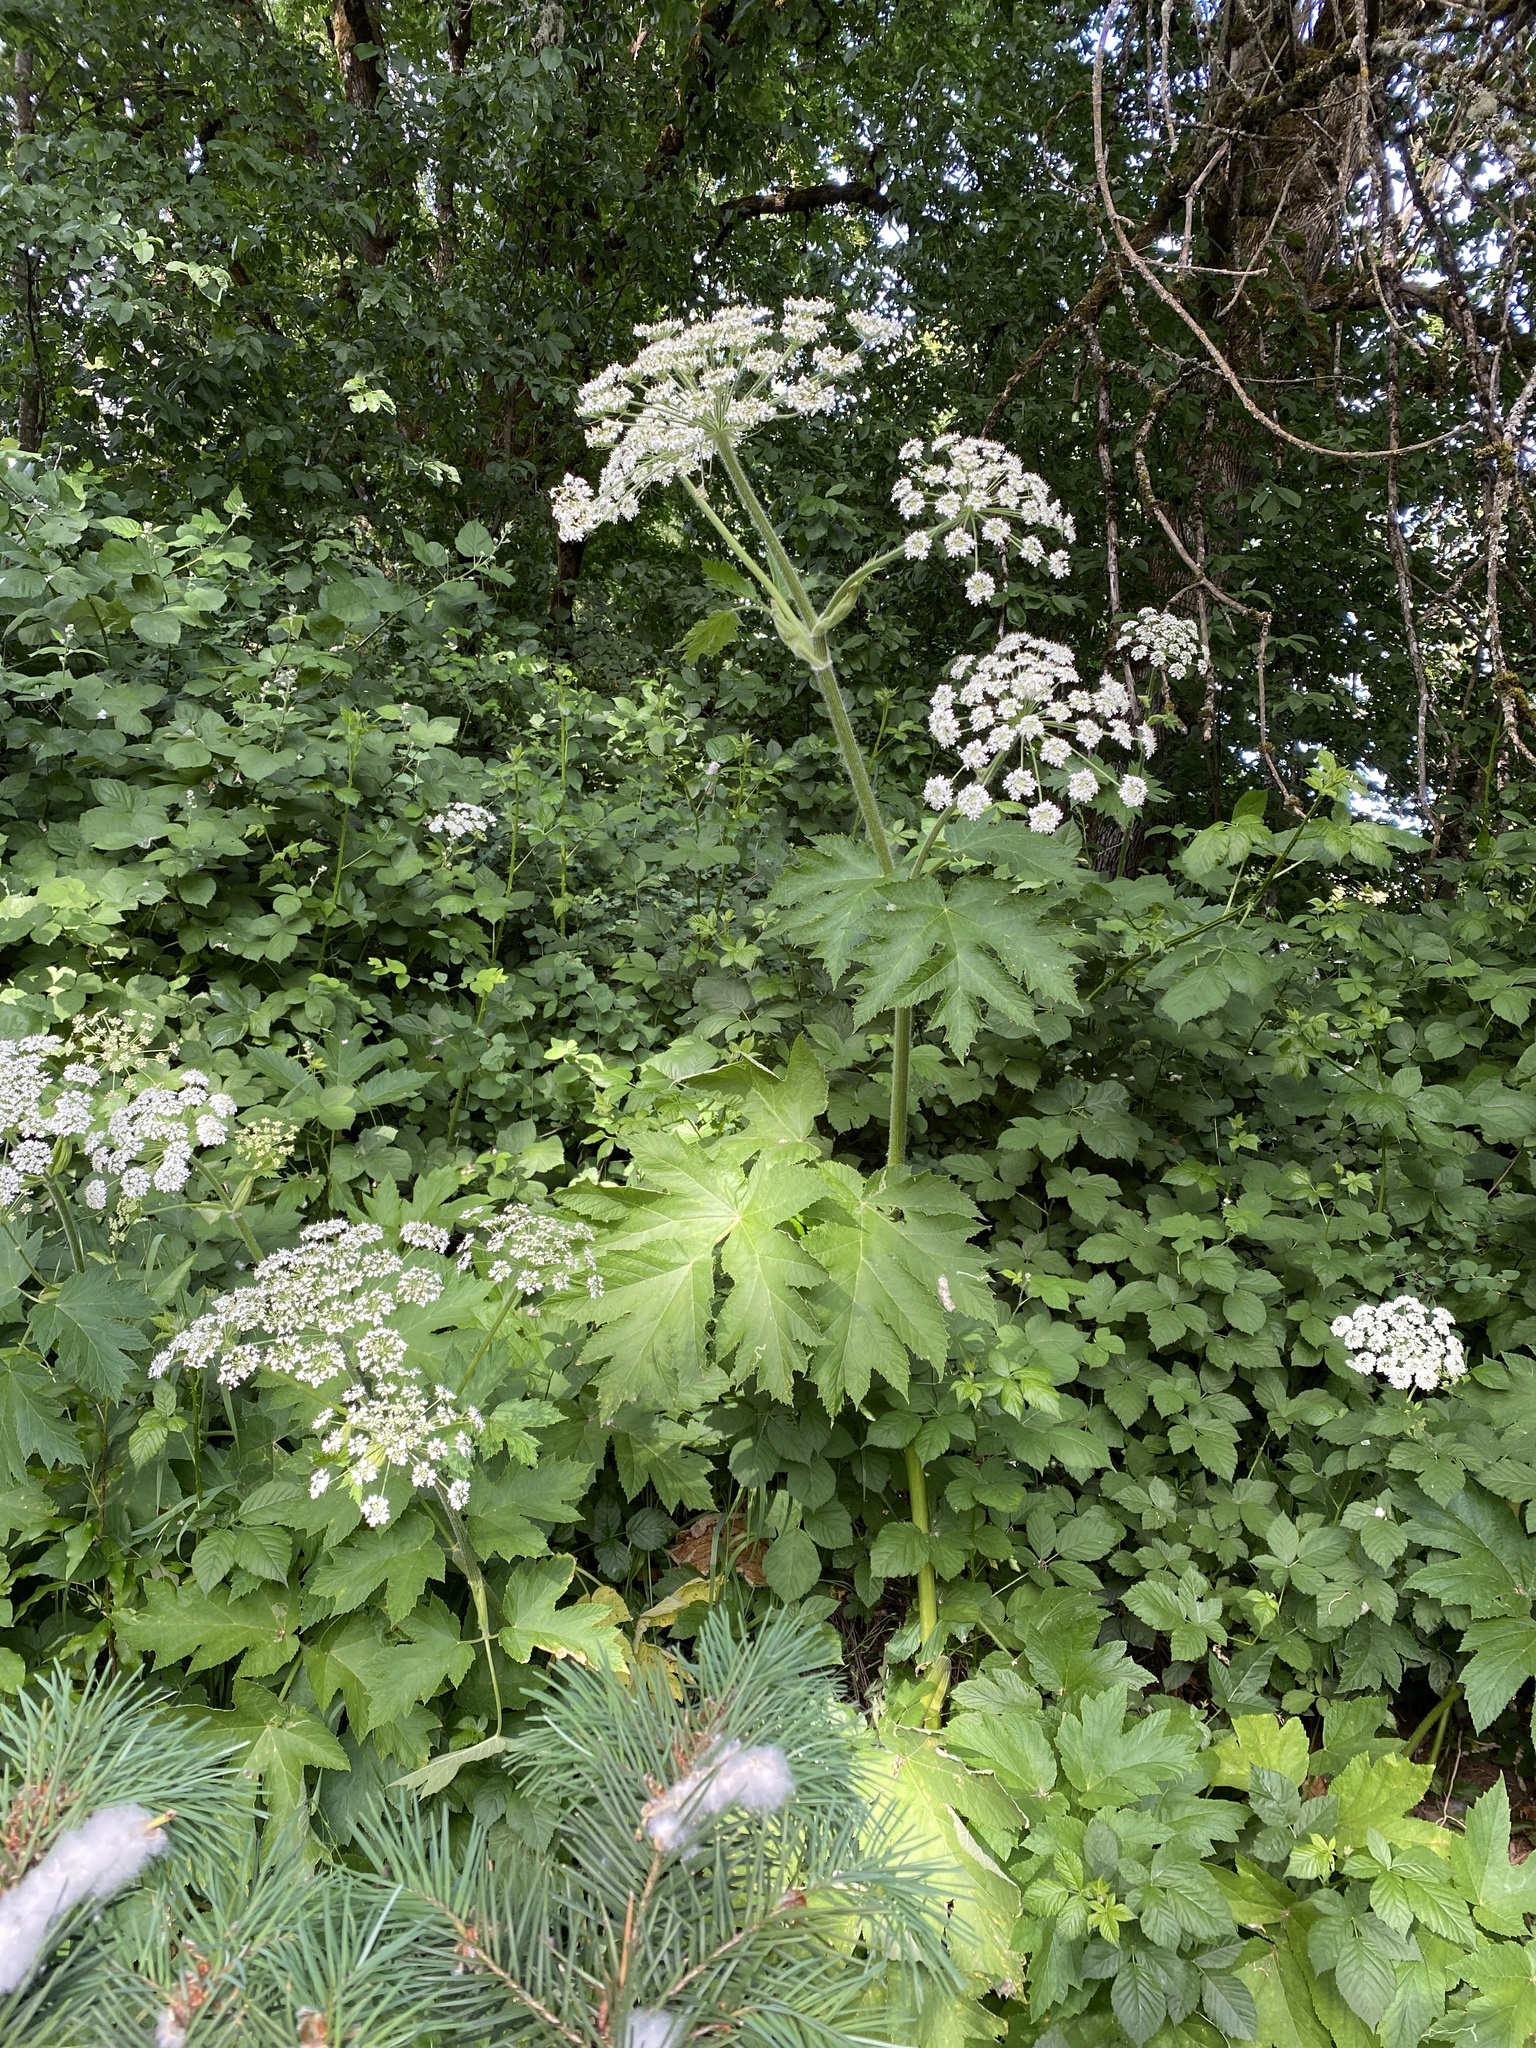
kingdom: Plantae
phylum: Tracheophyta
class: Magnoliopsida
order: Apiales
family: Apiaceae
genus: Heracleum
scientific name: Heracleum maximum
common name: American cow parsnip
